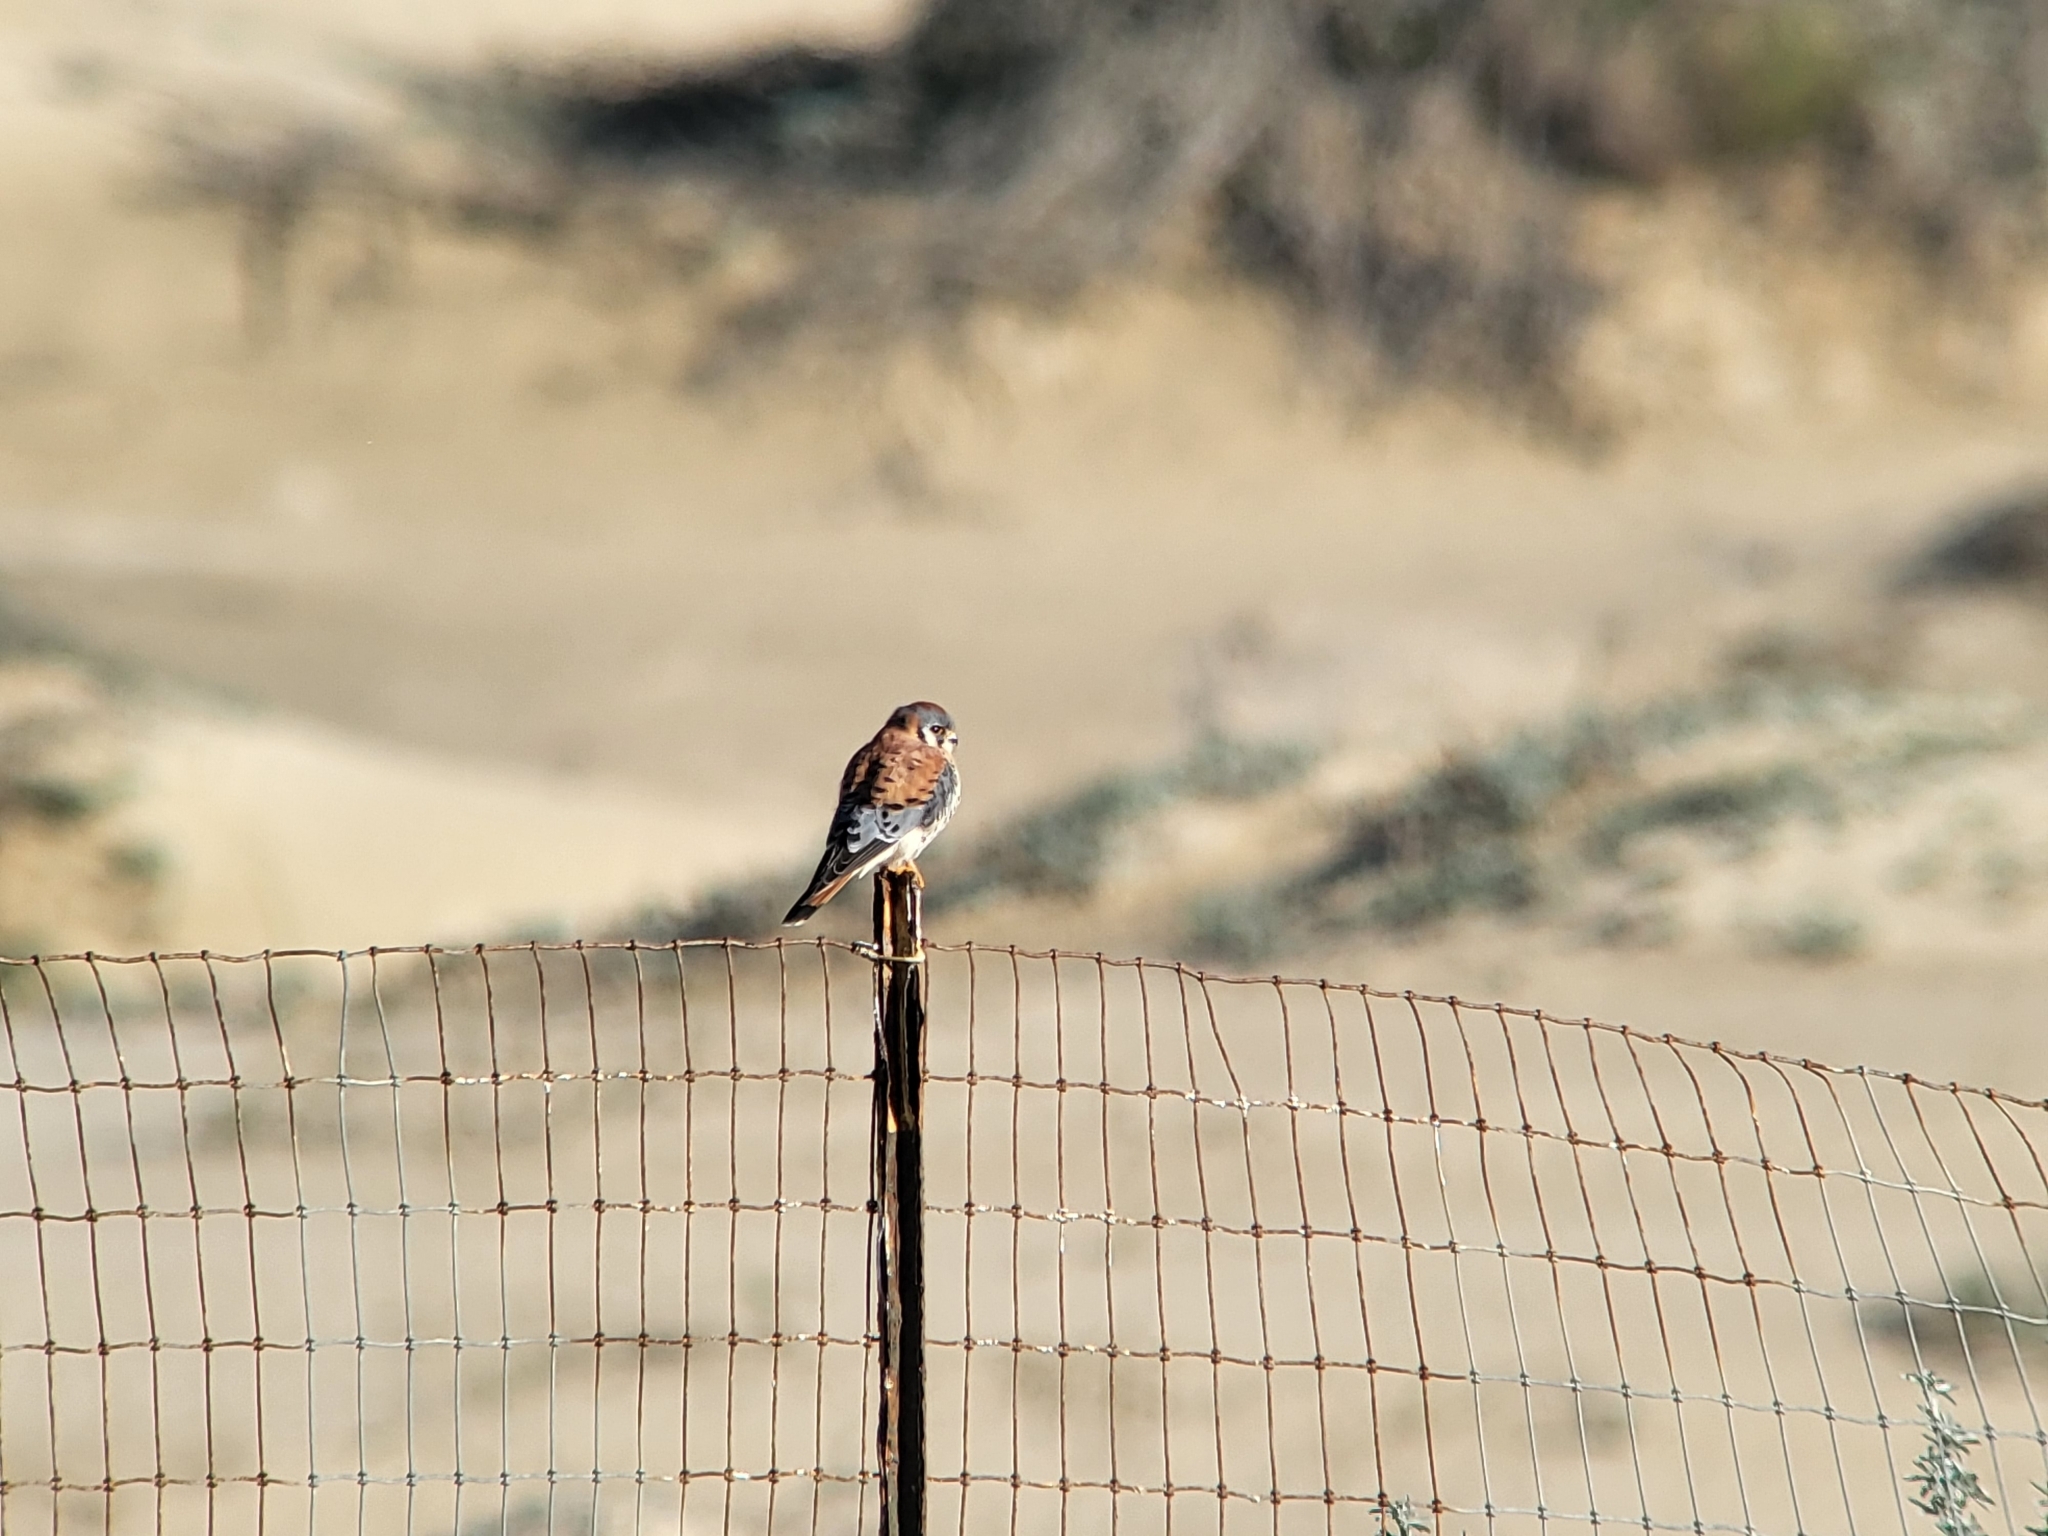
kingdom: Animalia
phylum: Chordata
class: Aves
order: Falconiformes
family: Falconidae
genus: Falco
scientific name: Falco sparverius
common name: American kestrel
